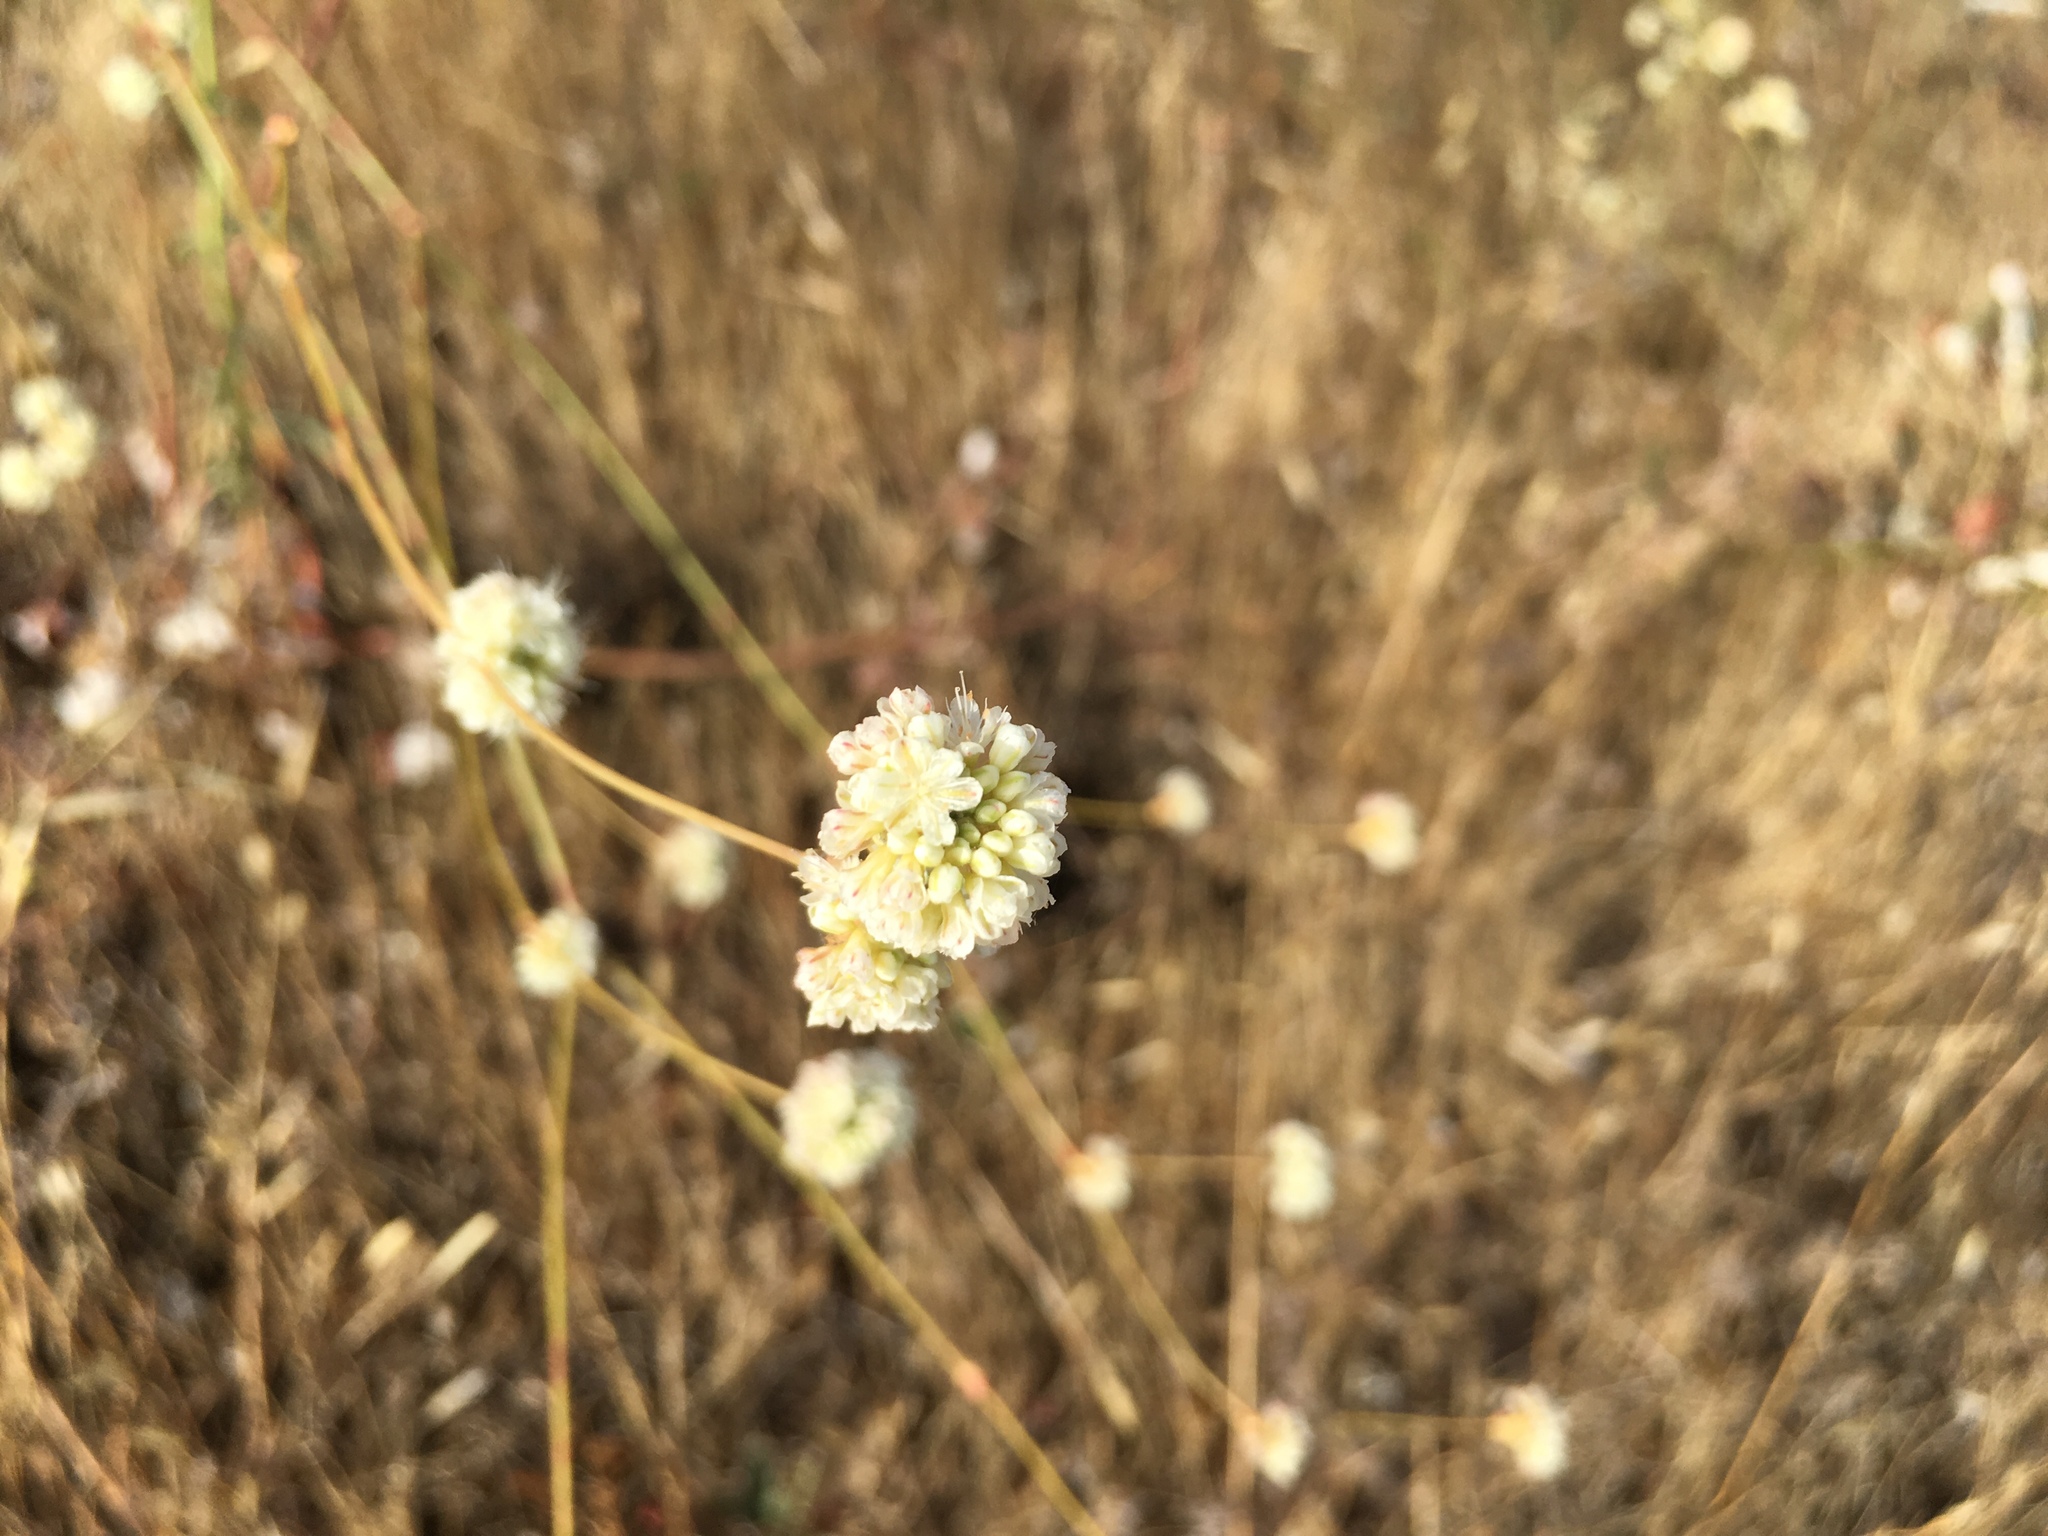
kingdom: Plantae
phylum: Tracheophyta
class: Magnoliopsida
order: Caryophyllales
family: Polygonaceae
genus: Eriogonum
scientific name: Eriogonum nudum
